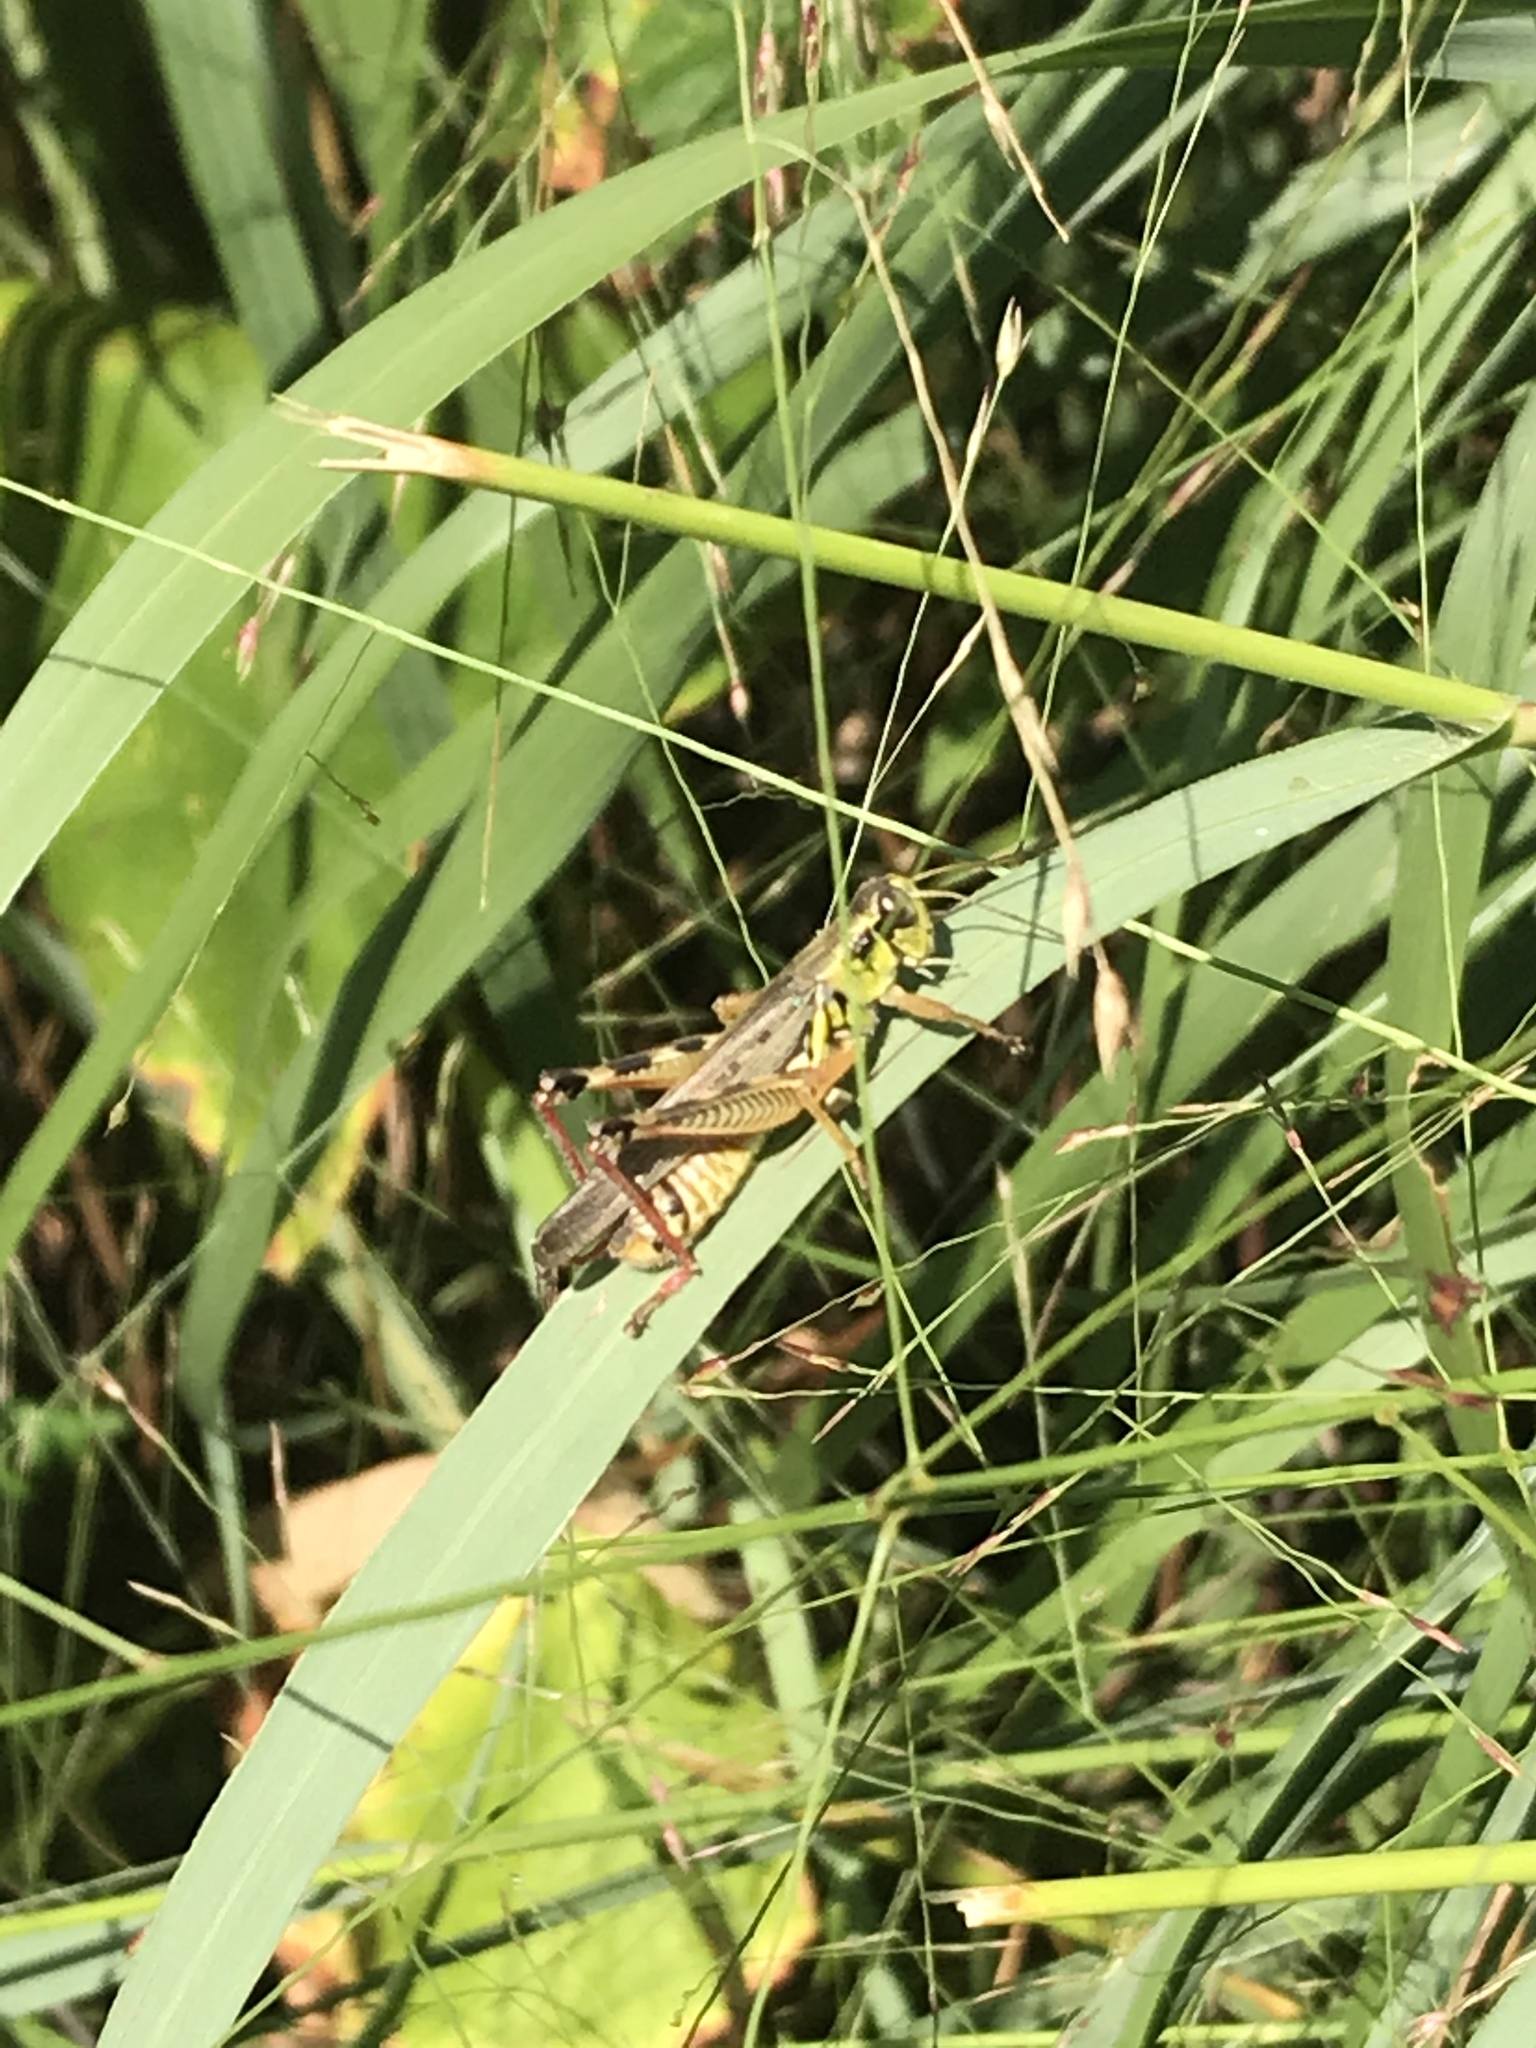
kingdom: Animalia
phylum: Arthropoda
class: Insecta
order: Orthoptera
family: Acrididae
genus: Melanoplus
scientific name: Melanoplus femurrubrum
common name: Red-legged grasshopper
